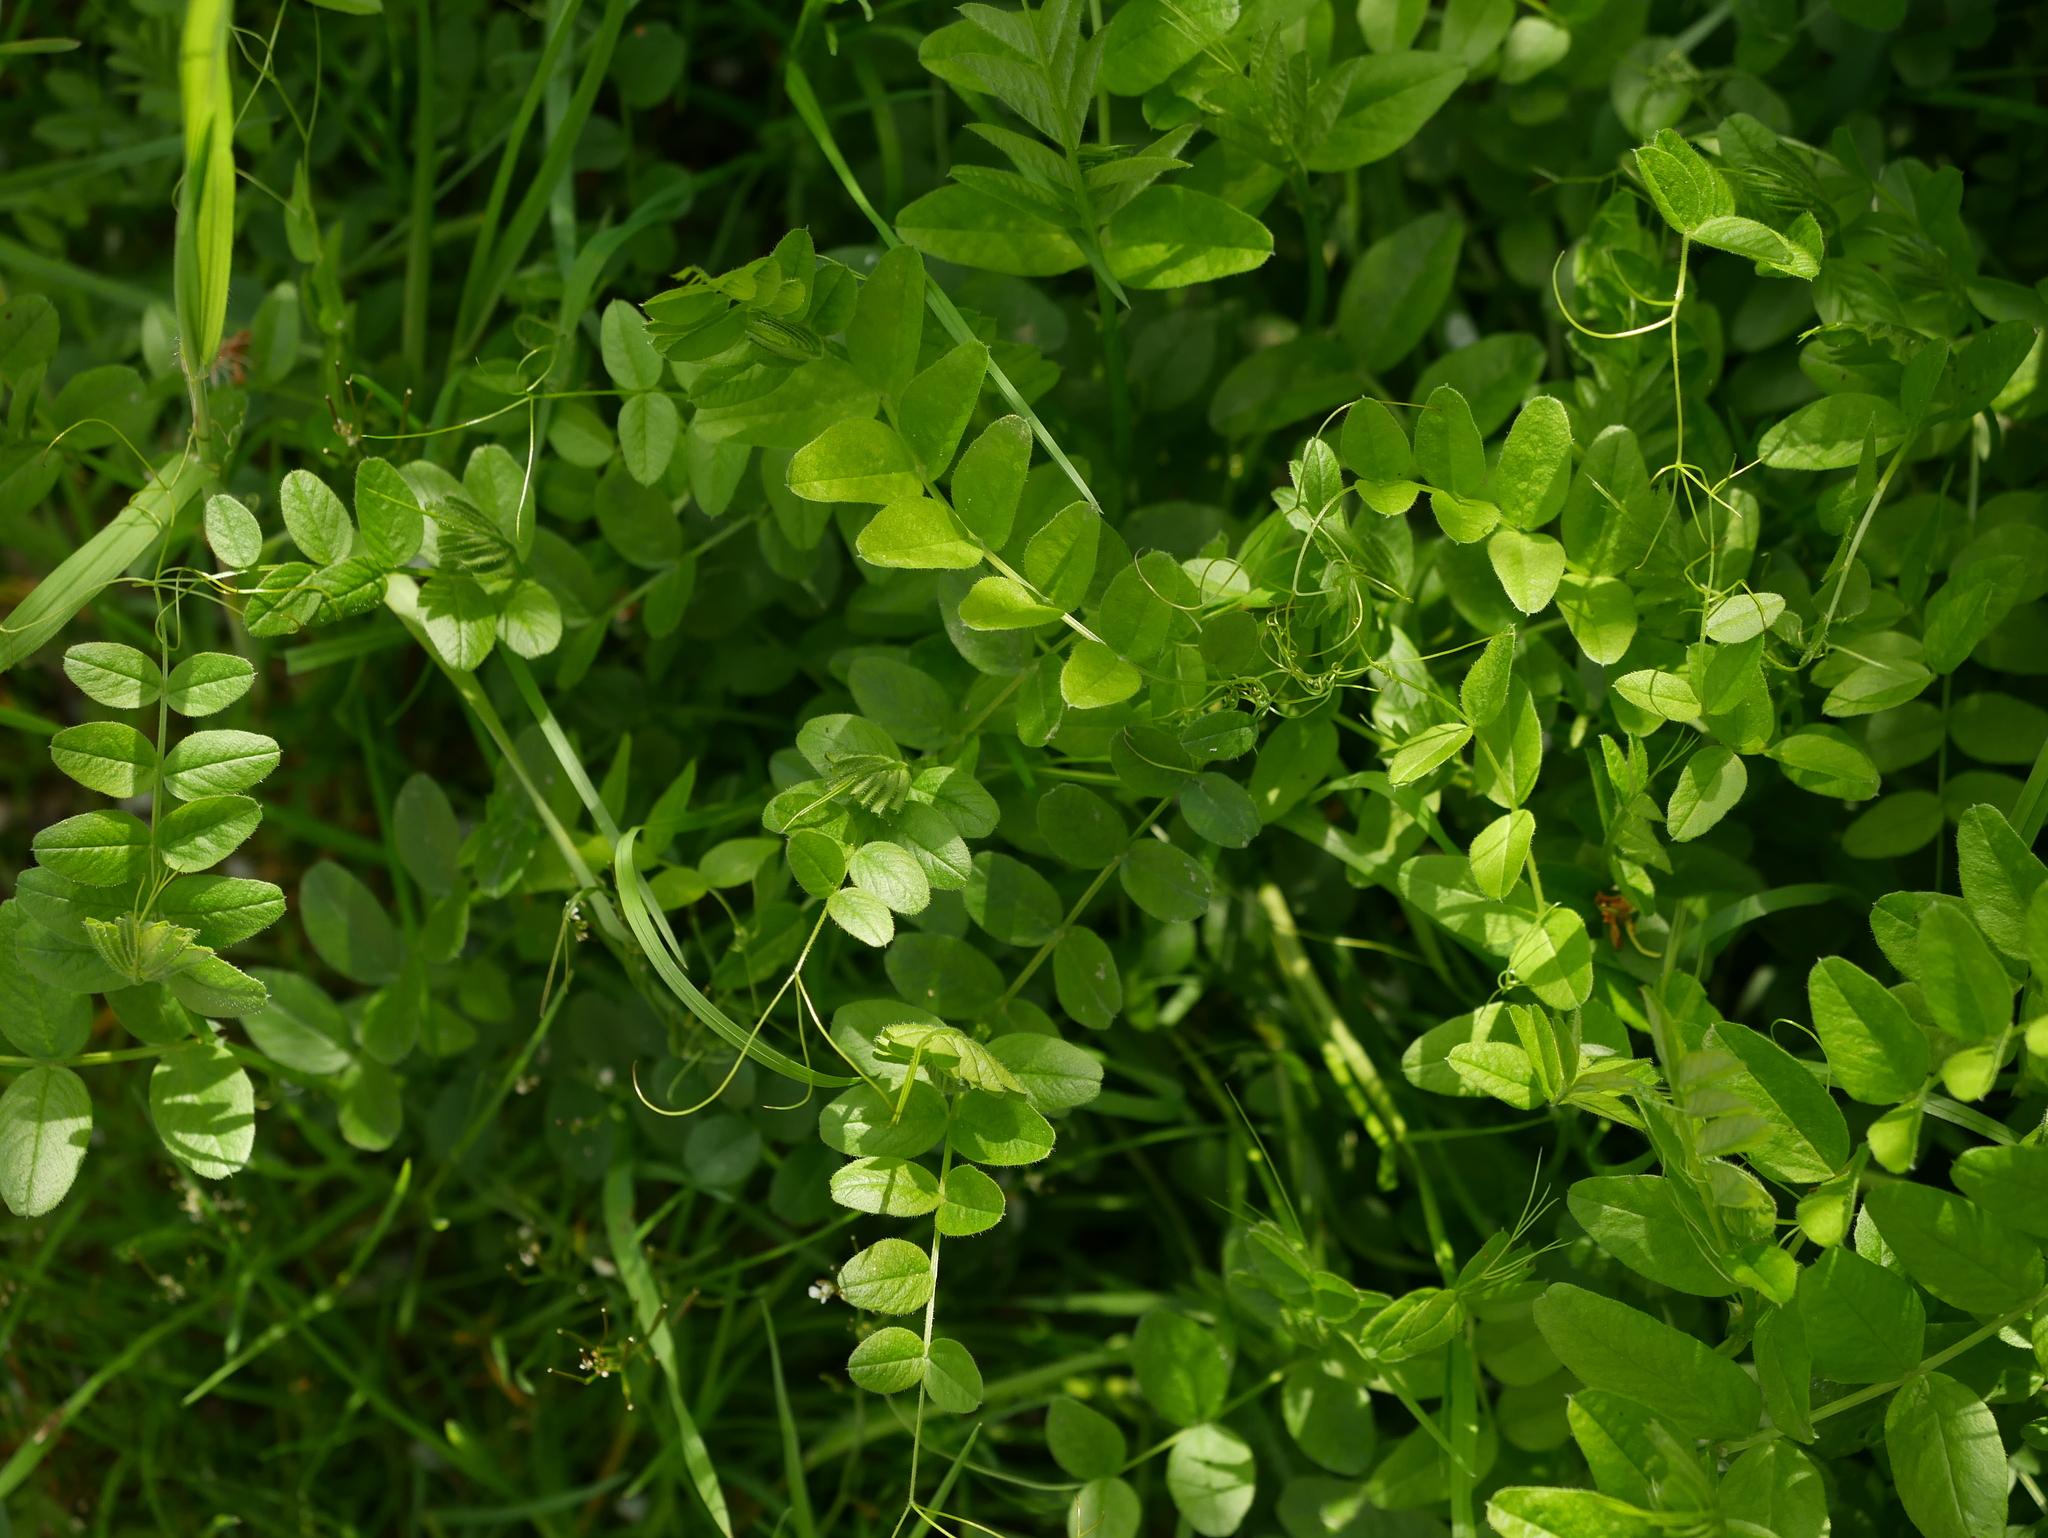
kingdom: Plantae
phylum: Tracheophyta
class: Magnoliopsida
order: Fabales
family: Fabaceae
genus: Vicia
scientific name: Vicia sepium
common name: Bush vetch
